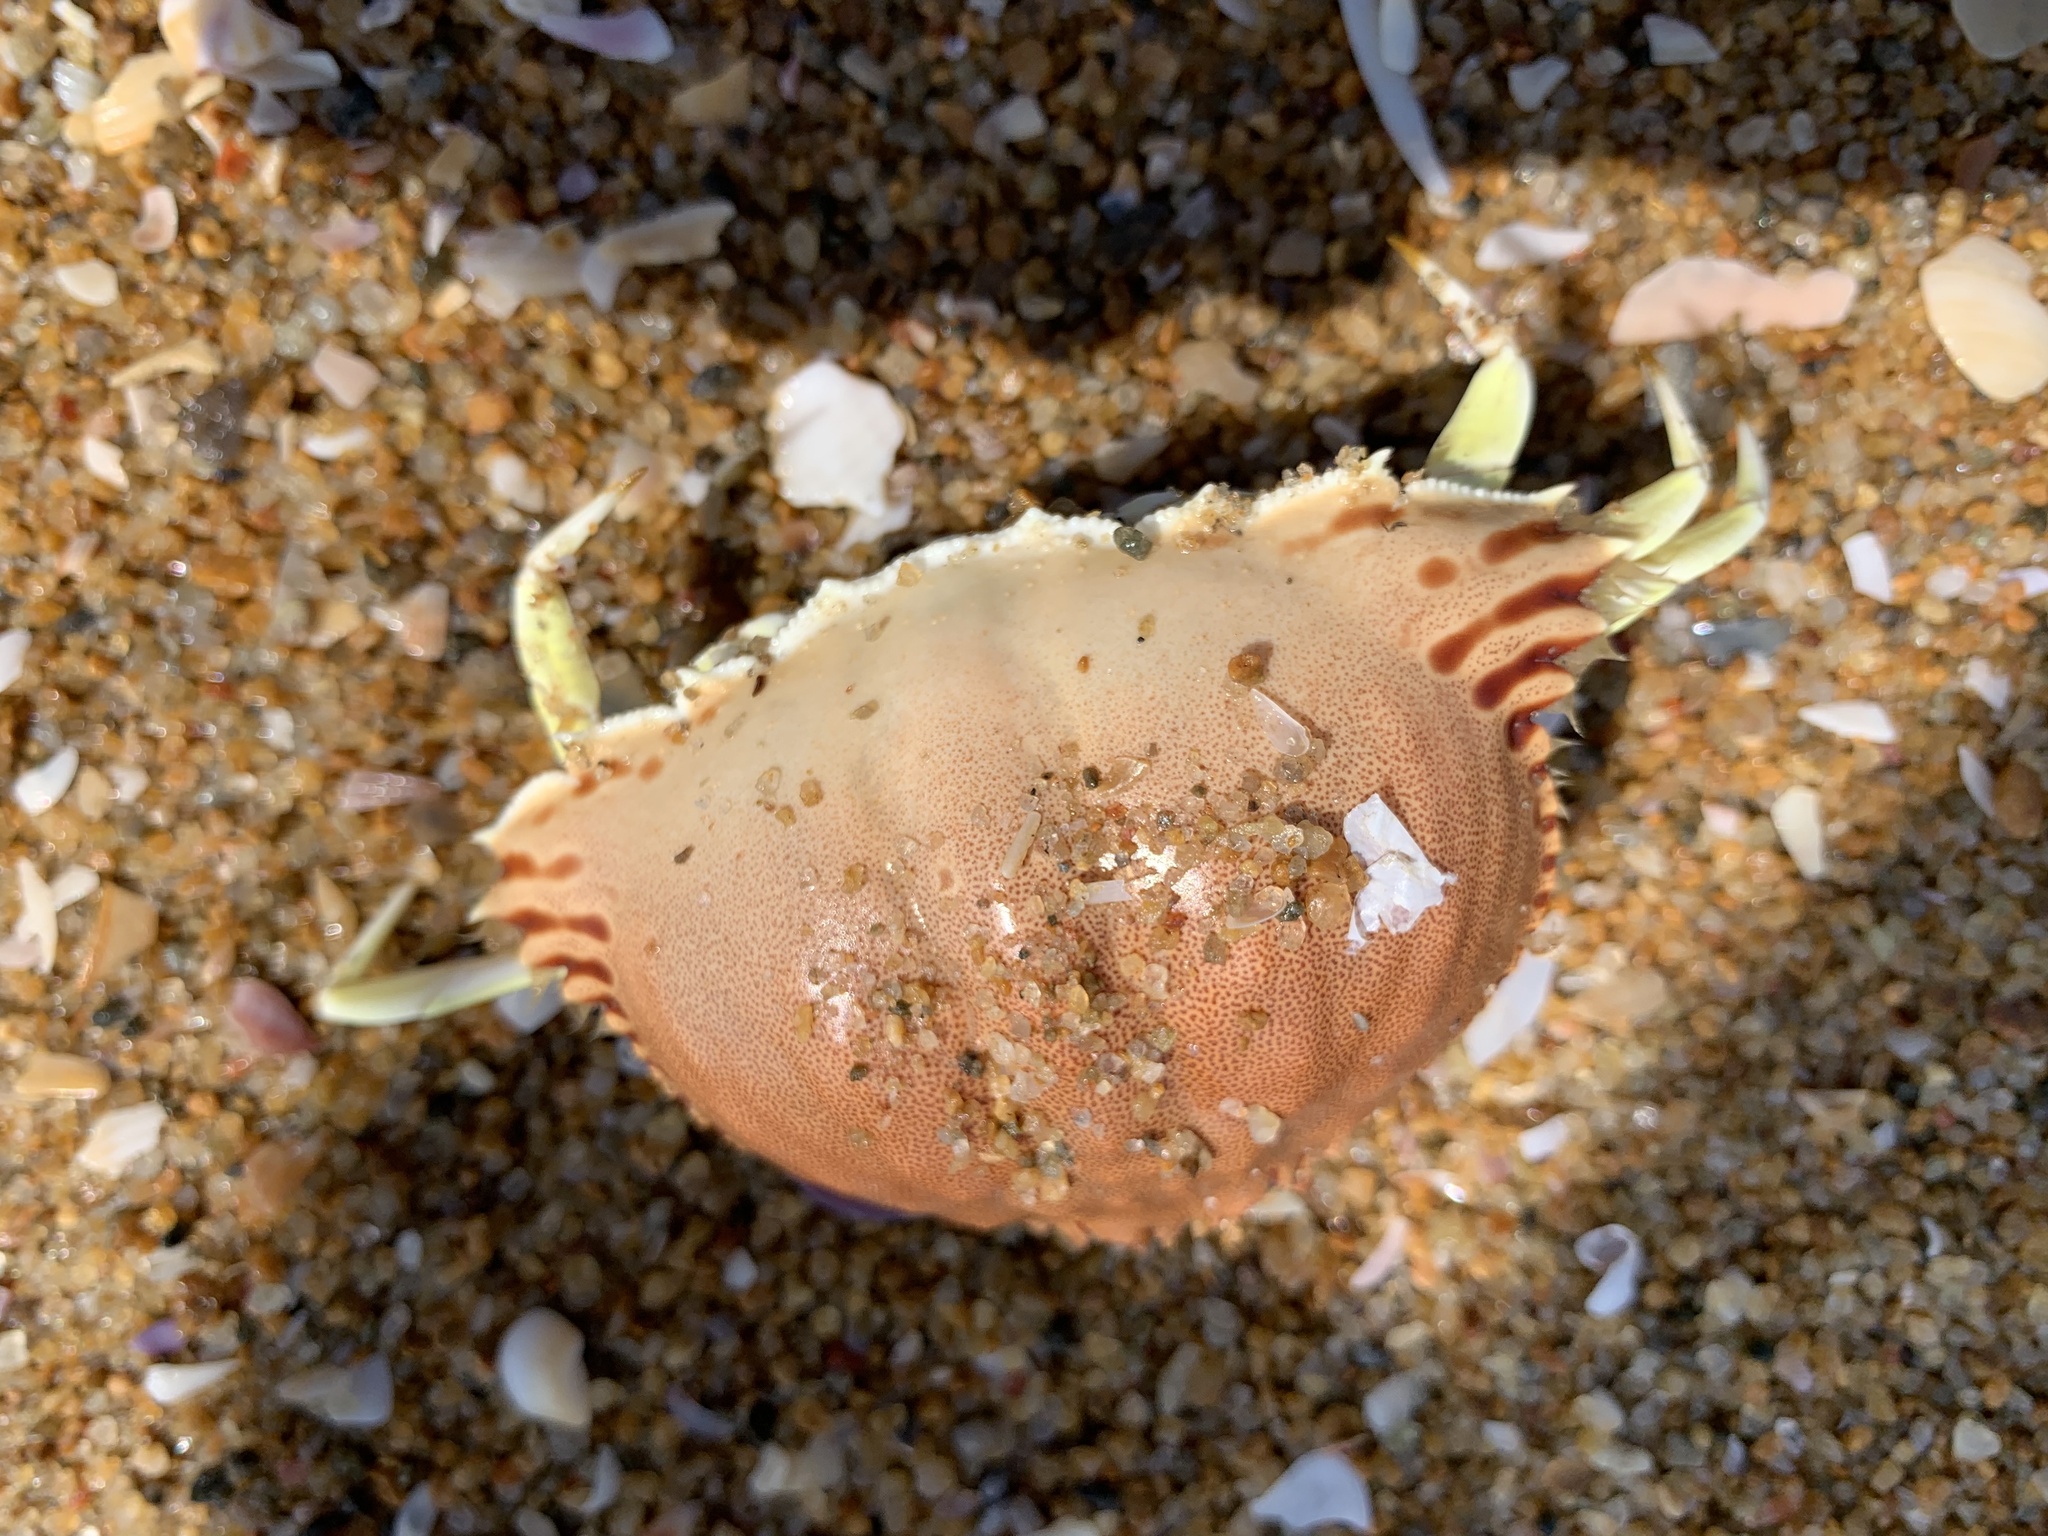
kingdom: Animalia
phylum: Arthropoda
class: Malacostraca
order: Decapoda
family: Calappidae
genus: Calappa
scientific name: Calappa guerini
